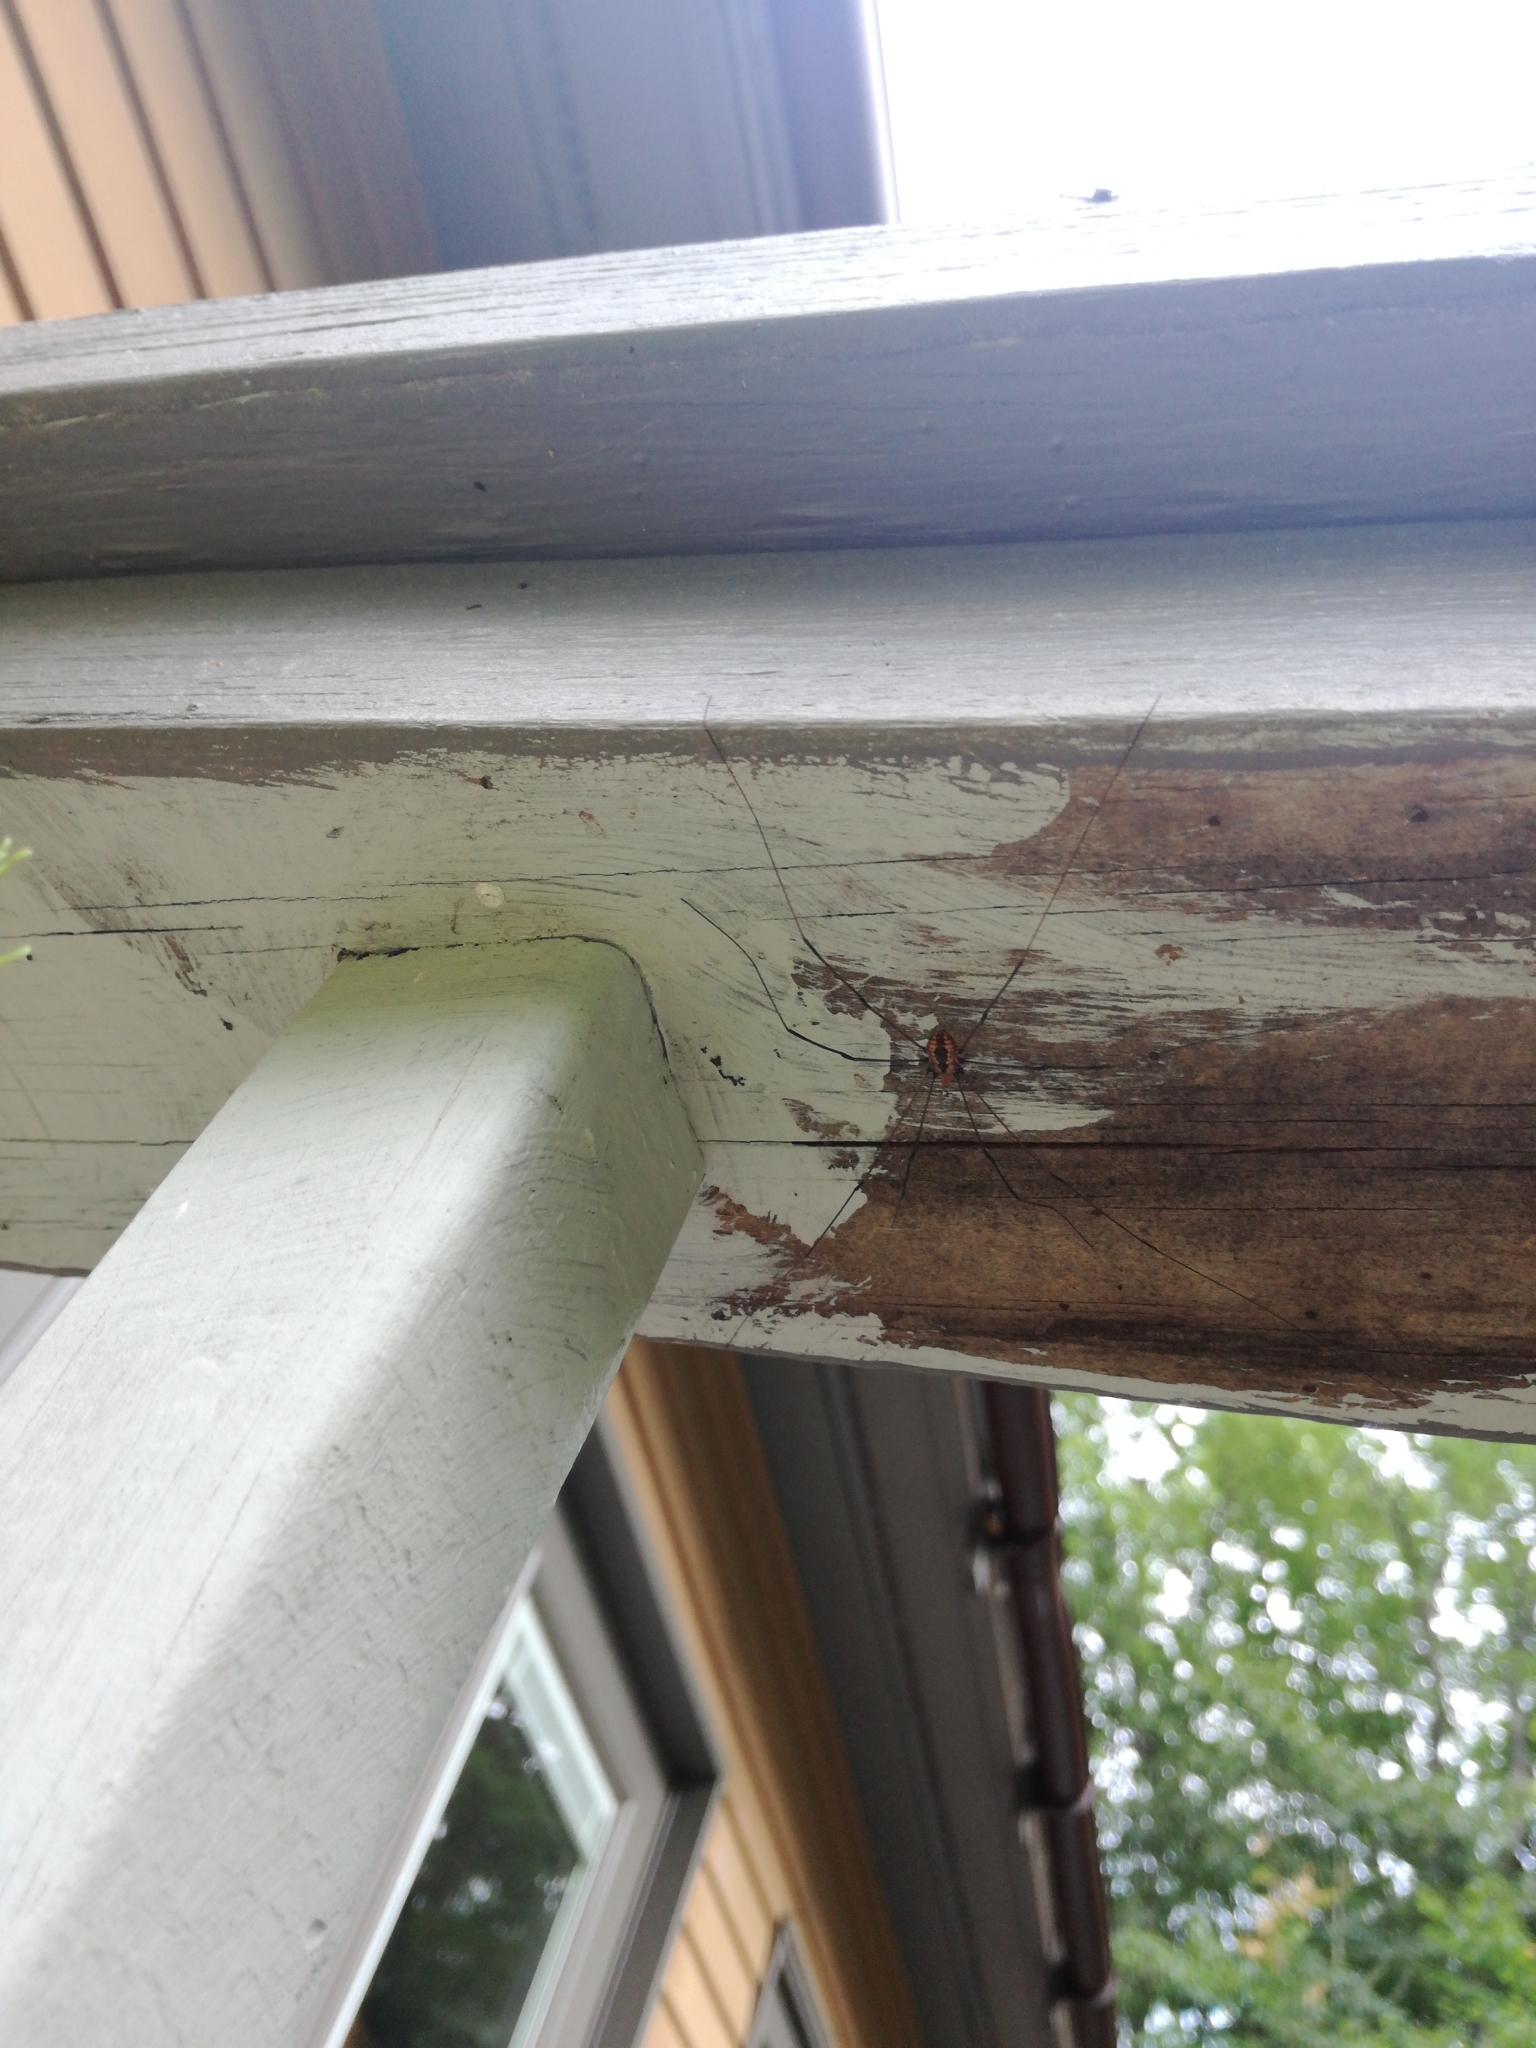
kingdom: Animalia
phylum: Arthropoda
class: Arachnida
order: Opiliones
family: Sclerosomatidae
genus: Leiobunum
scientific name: Leiobunum vittatum
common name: Eastern harvestman
